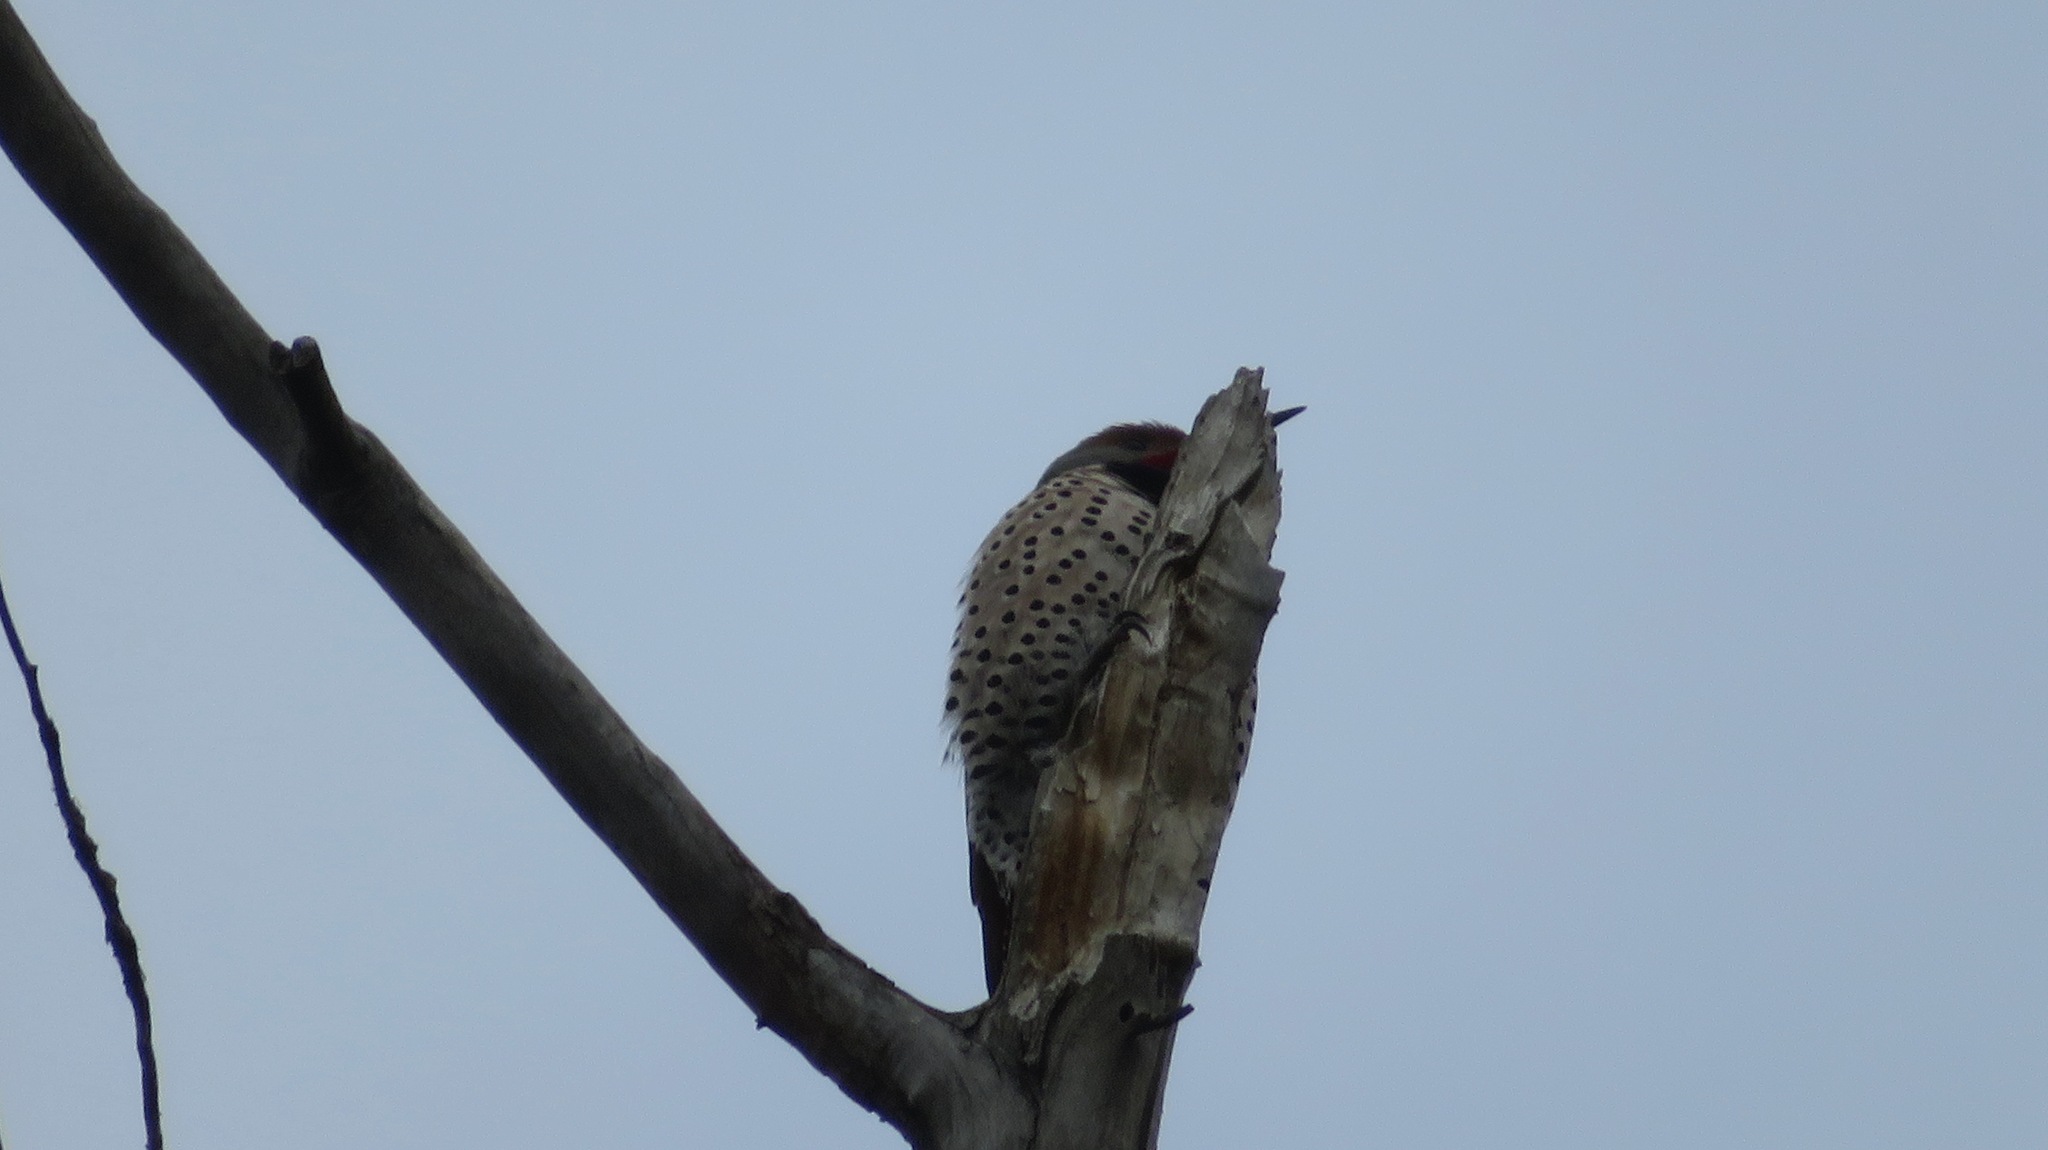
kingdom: Animalia
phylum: Chordata
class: Aves
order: Piciformes
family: Picidae
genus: Colaptes
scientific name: Colaptes auratus
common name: Northern flicker
